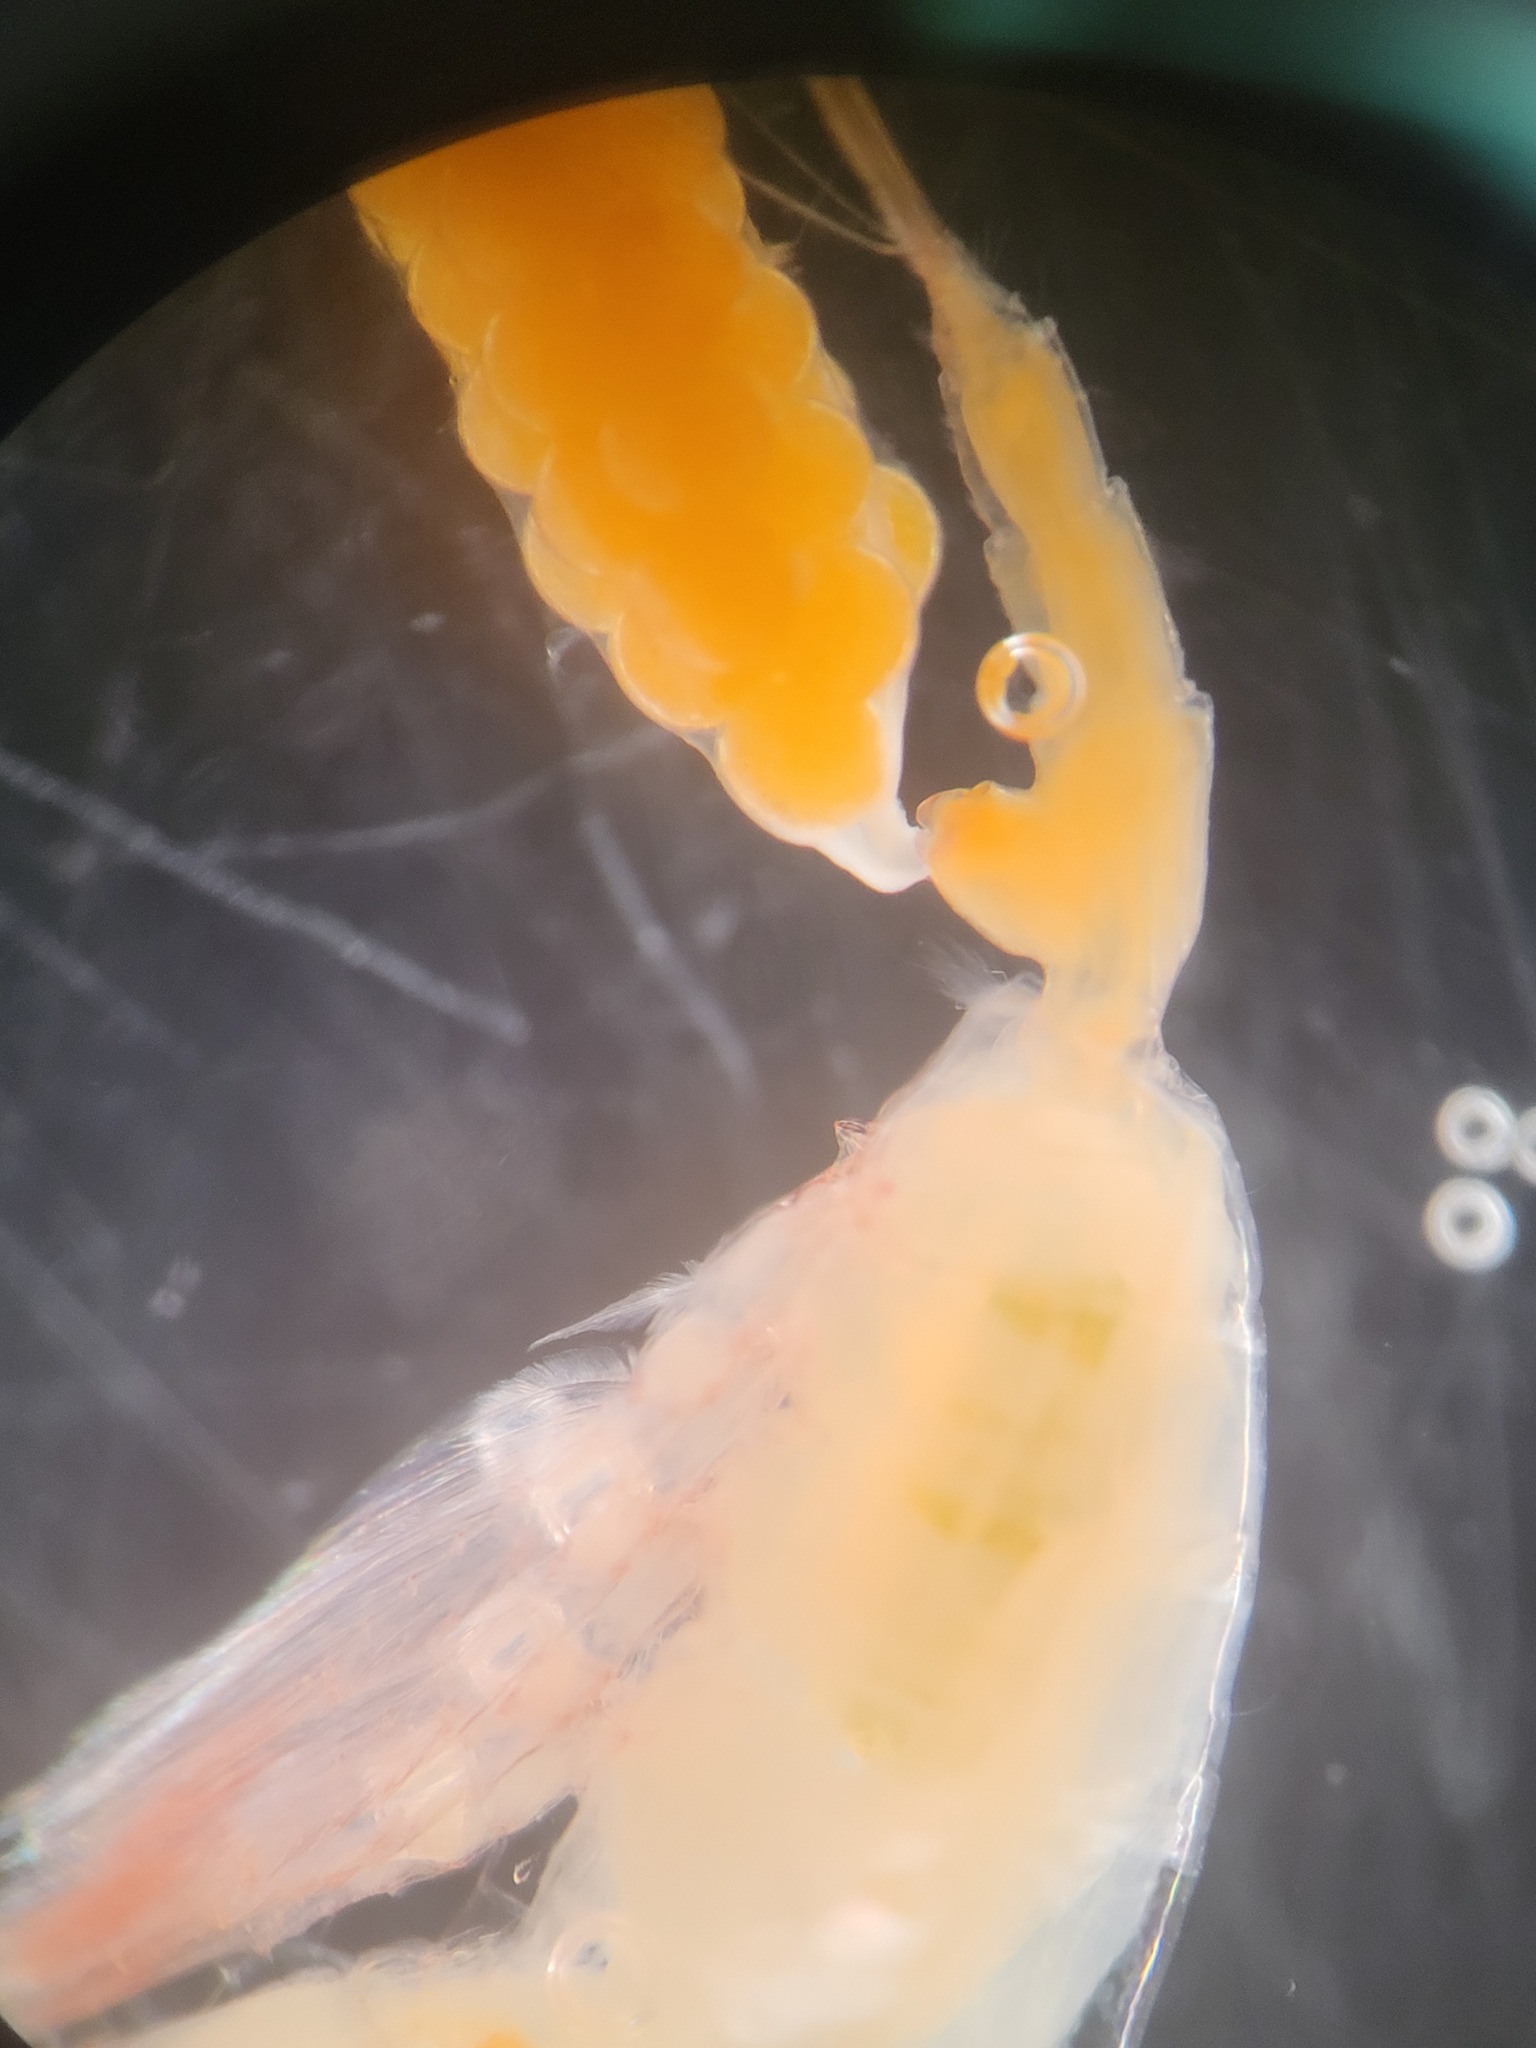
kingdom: Animalia
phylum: Arthropoda
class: Copepoda
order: Calanoida
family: Euchaetidae
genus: Paraeuchaeta
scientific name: Paraeuchaeta glacialis
